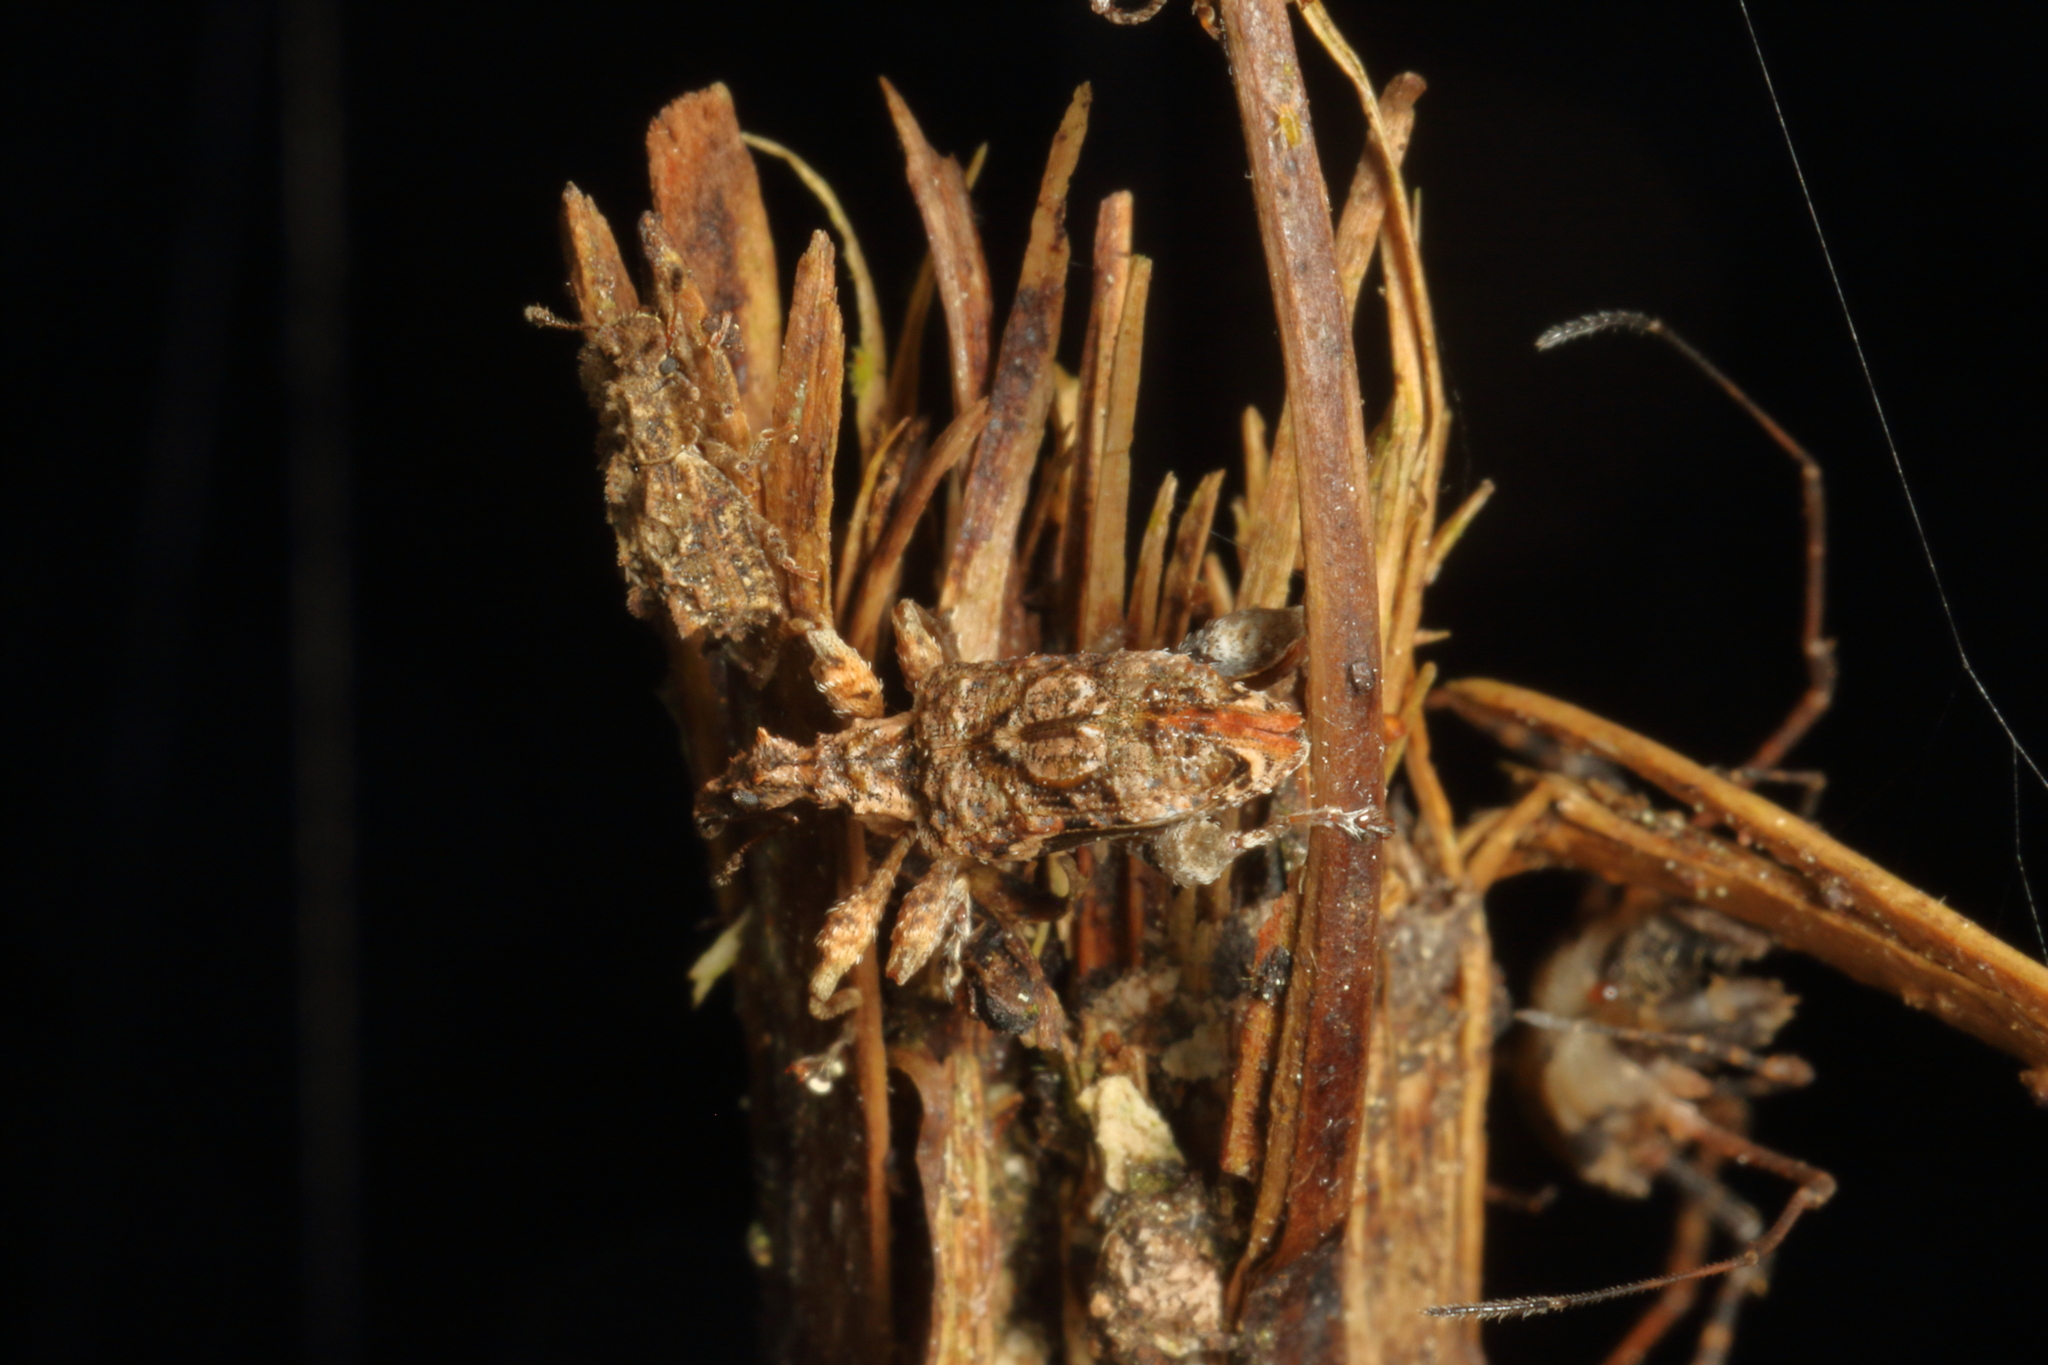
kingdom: Animalia
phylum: Arthropoda
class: Insecta
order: Coleoptera
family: Curculionidae
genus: Stephanorhynchus
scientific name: Stephanorhynchus curvipes
